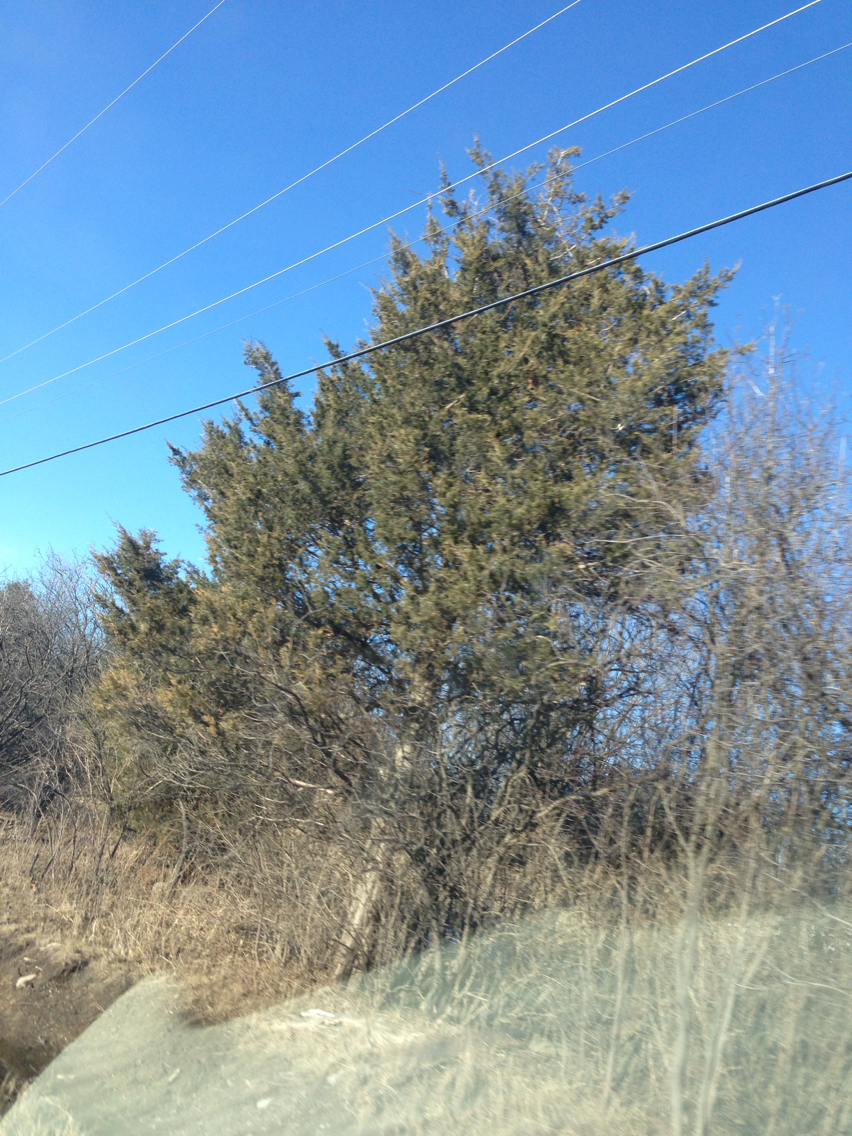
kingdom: Plantae
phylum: Tracheophyta
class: Pinopsida
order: Pinales
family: Cupressaceae
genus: Juniperus
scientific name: Juniperus virginiana
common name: Red juniper
